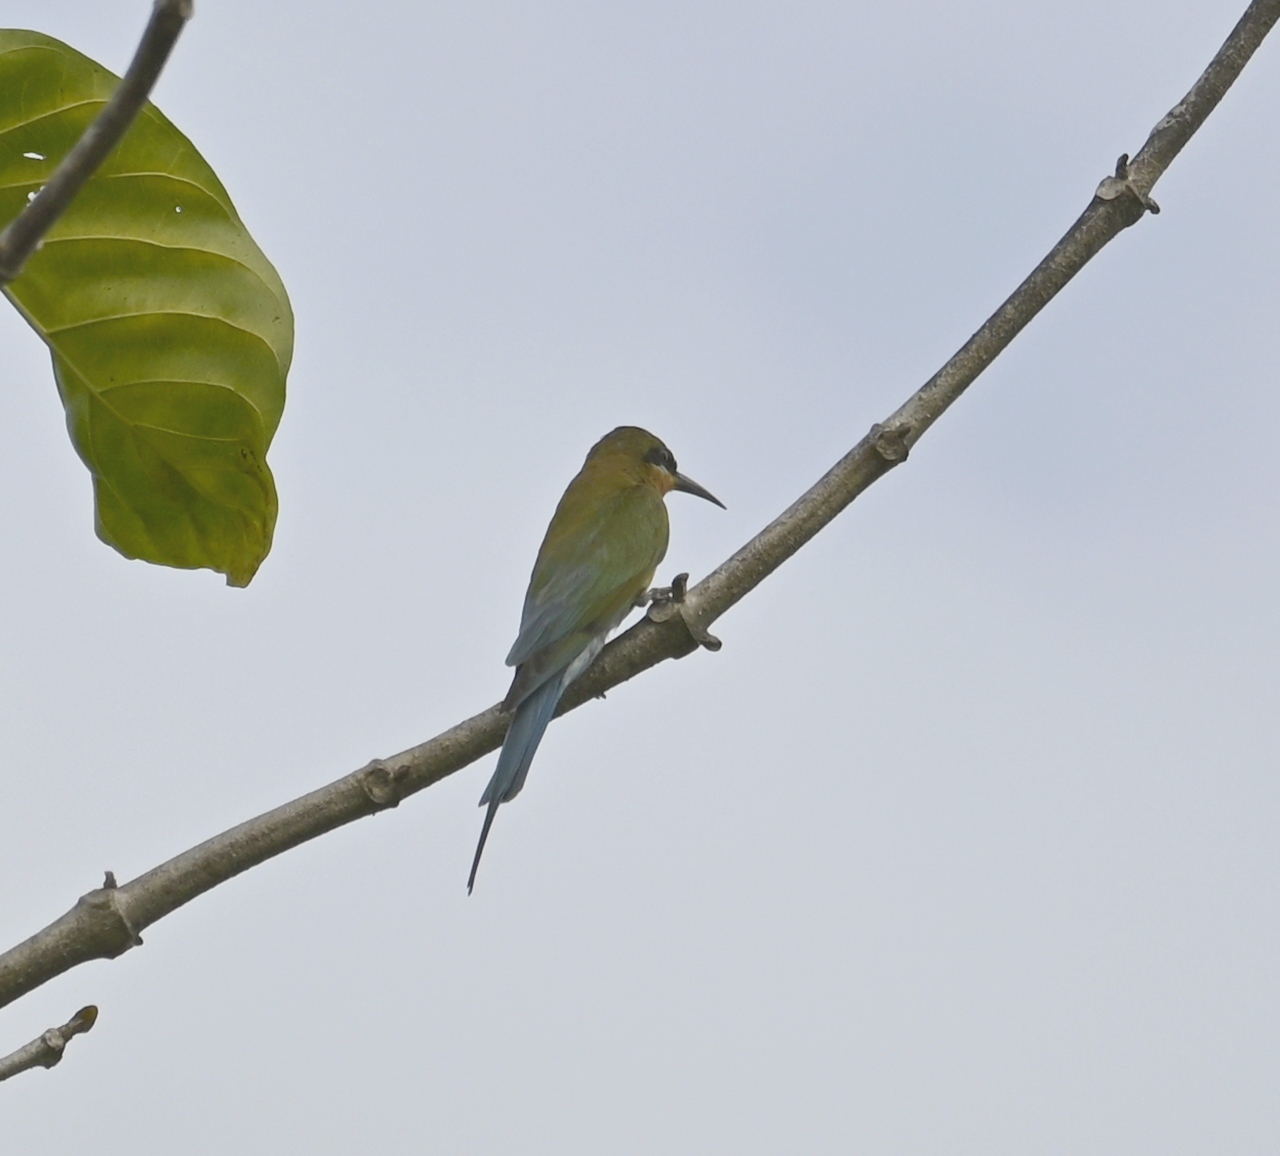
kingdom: Animalia
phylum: Chordata
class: Aves
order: Coraciiformes
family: Meropidae
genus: Merops
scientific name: Merops philippinus
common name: Blue-tailed bee-eater
